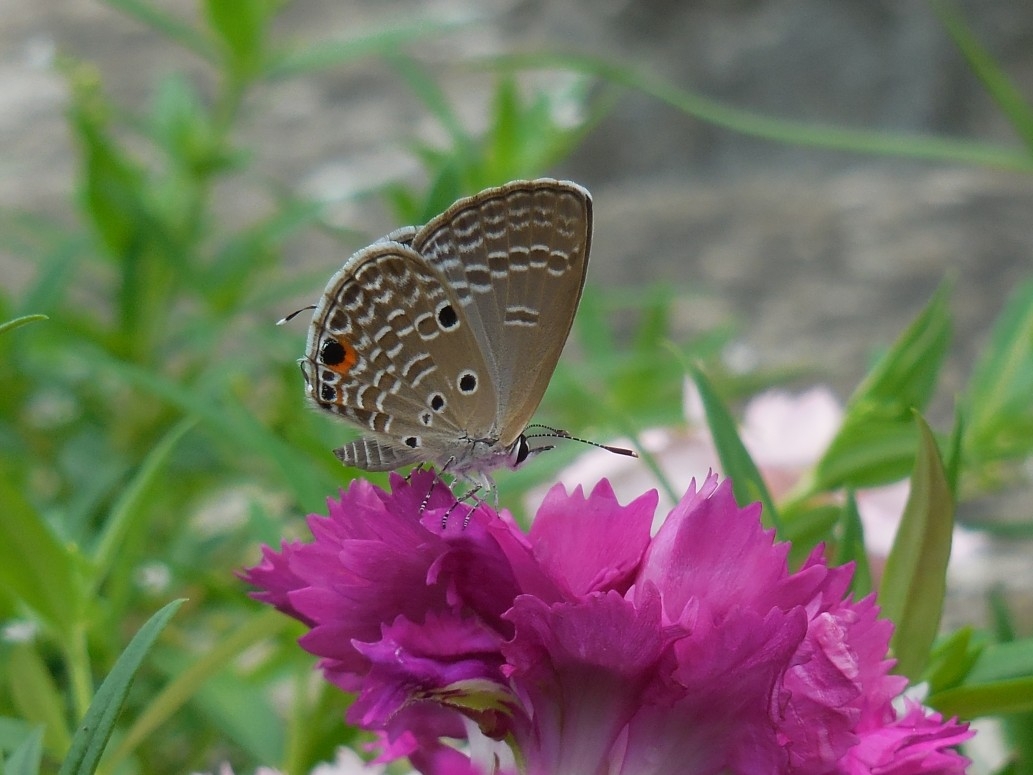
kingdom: Animalia
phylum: Arthropoda
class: Insecta
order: Lepidoptera
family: Lycaenidae
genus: Luthrodes
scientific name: Luthrodes pandava
